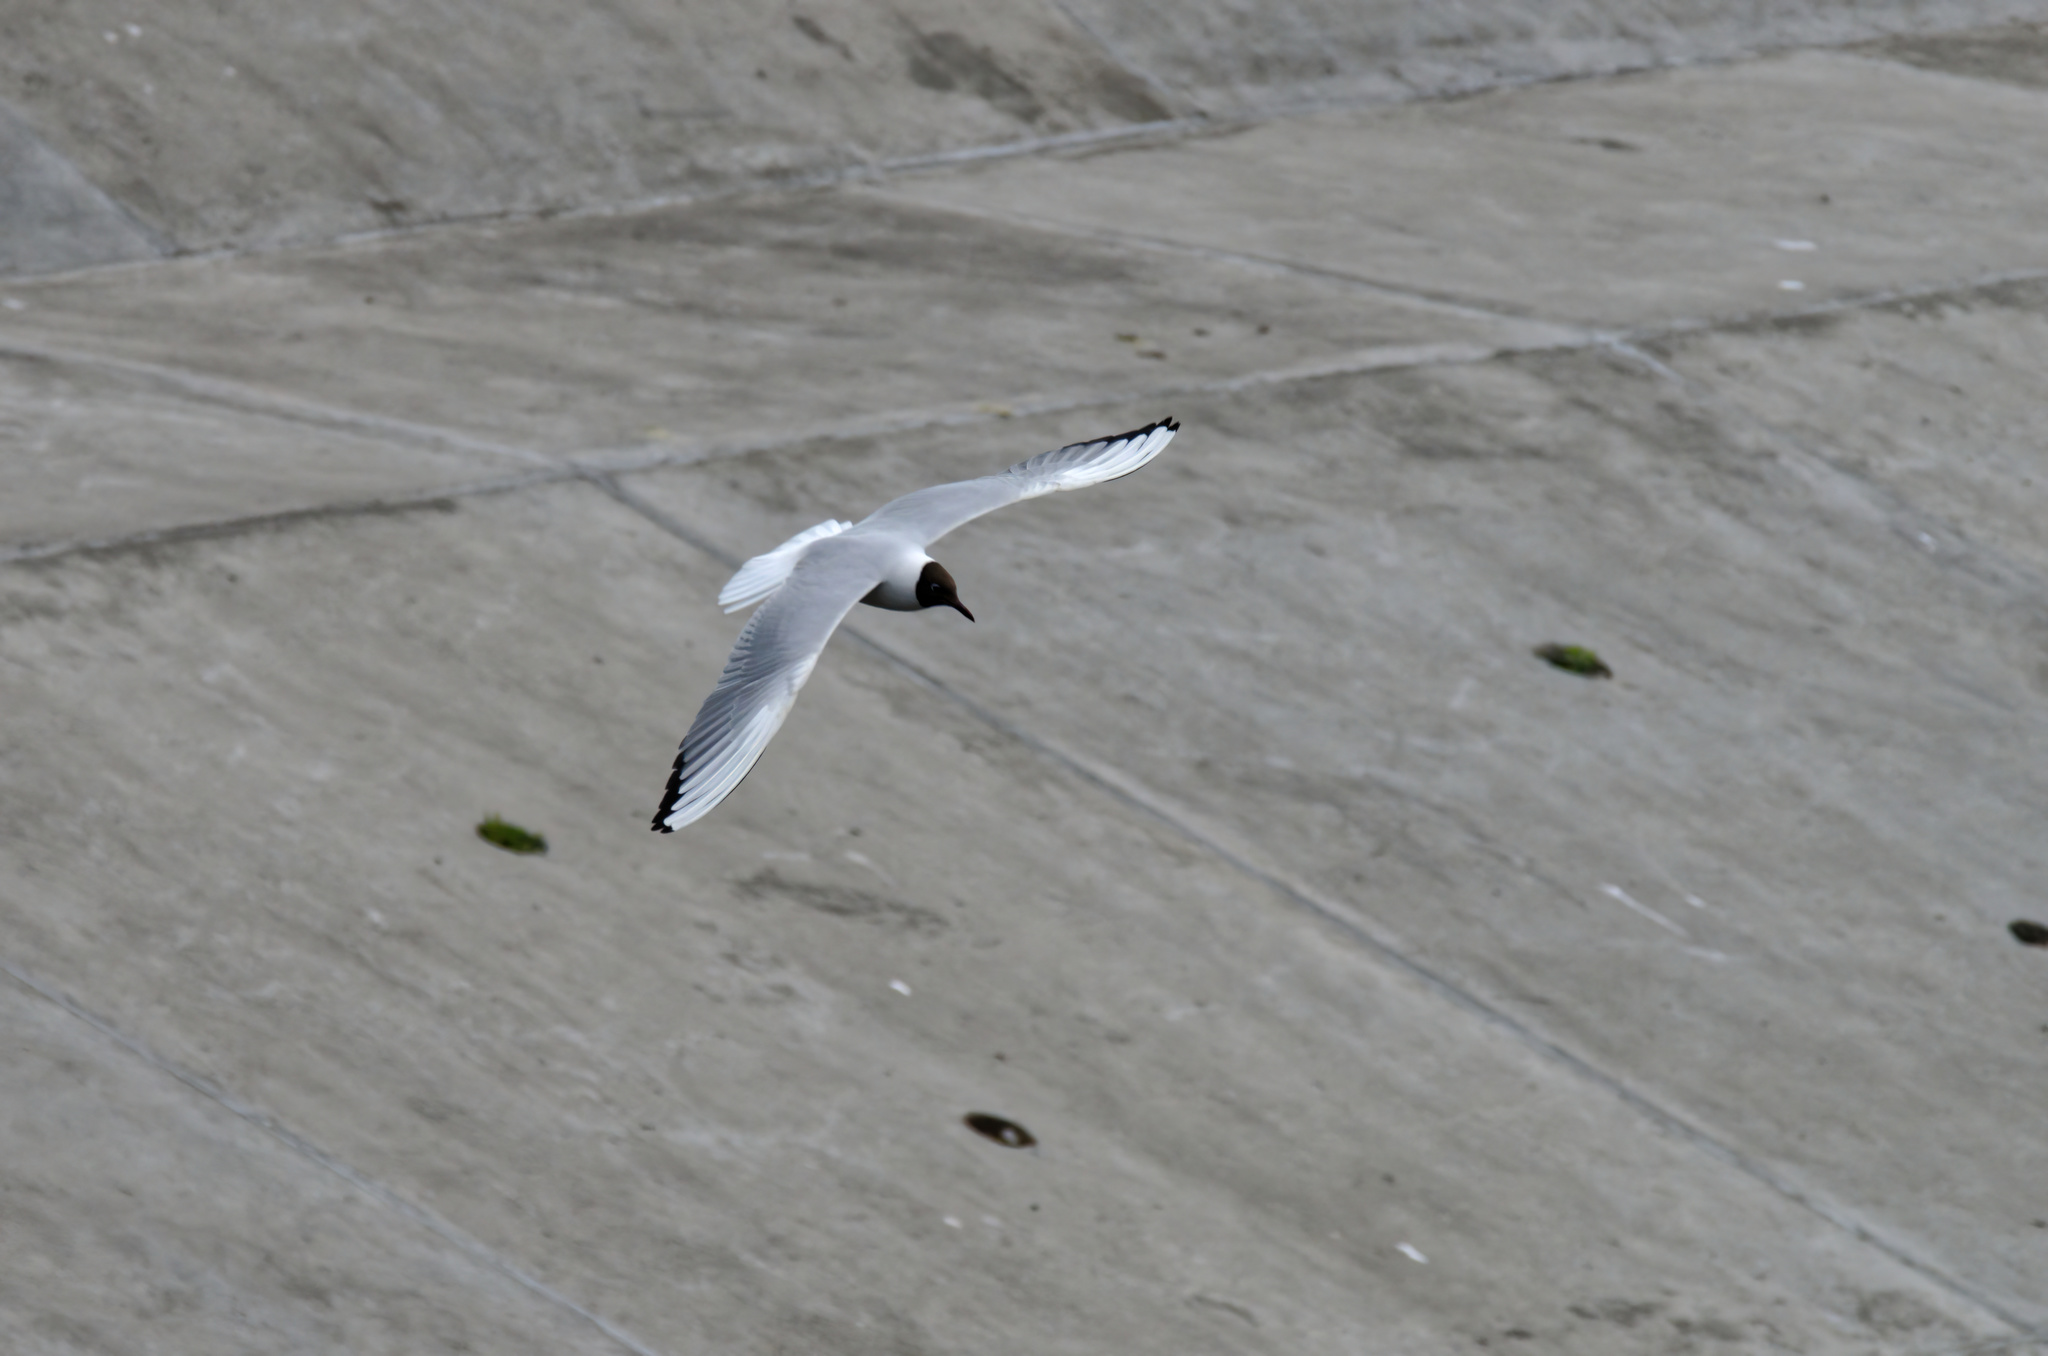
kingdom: Animalia
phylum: Chordata
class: Aves
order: Charadriiformes
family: Laridae
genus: Chroicocephalus
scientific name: Chroicocephalus ridibundus
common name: Black-headed gull
